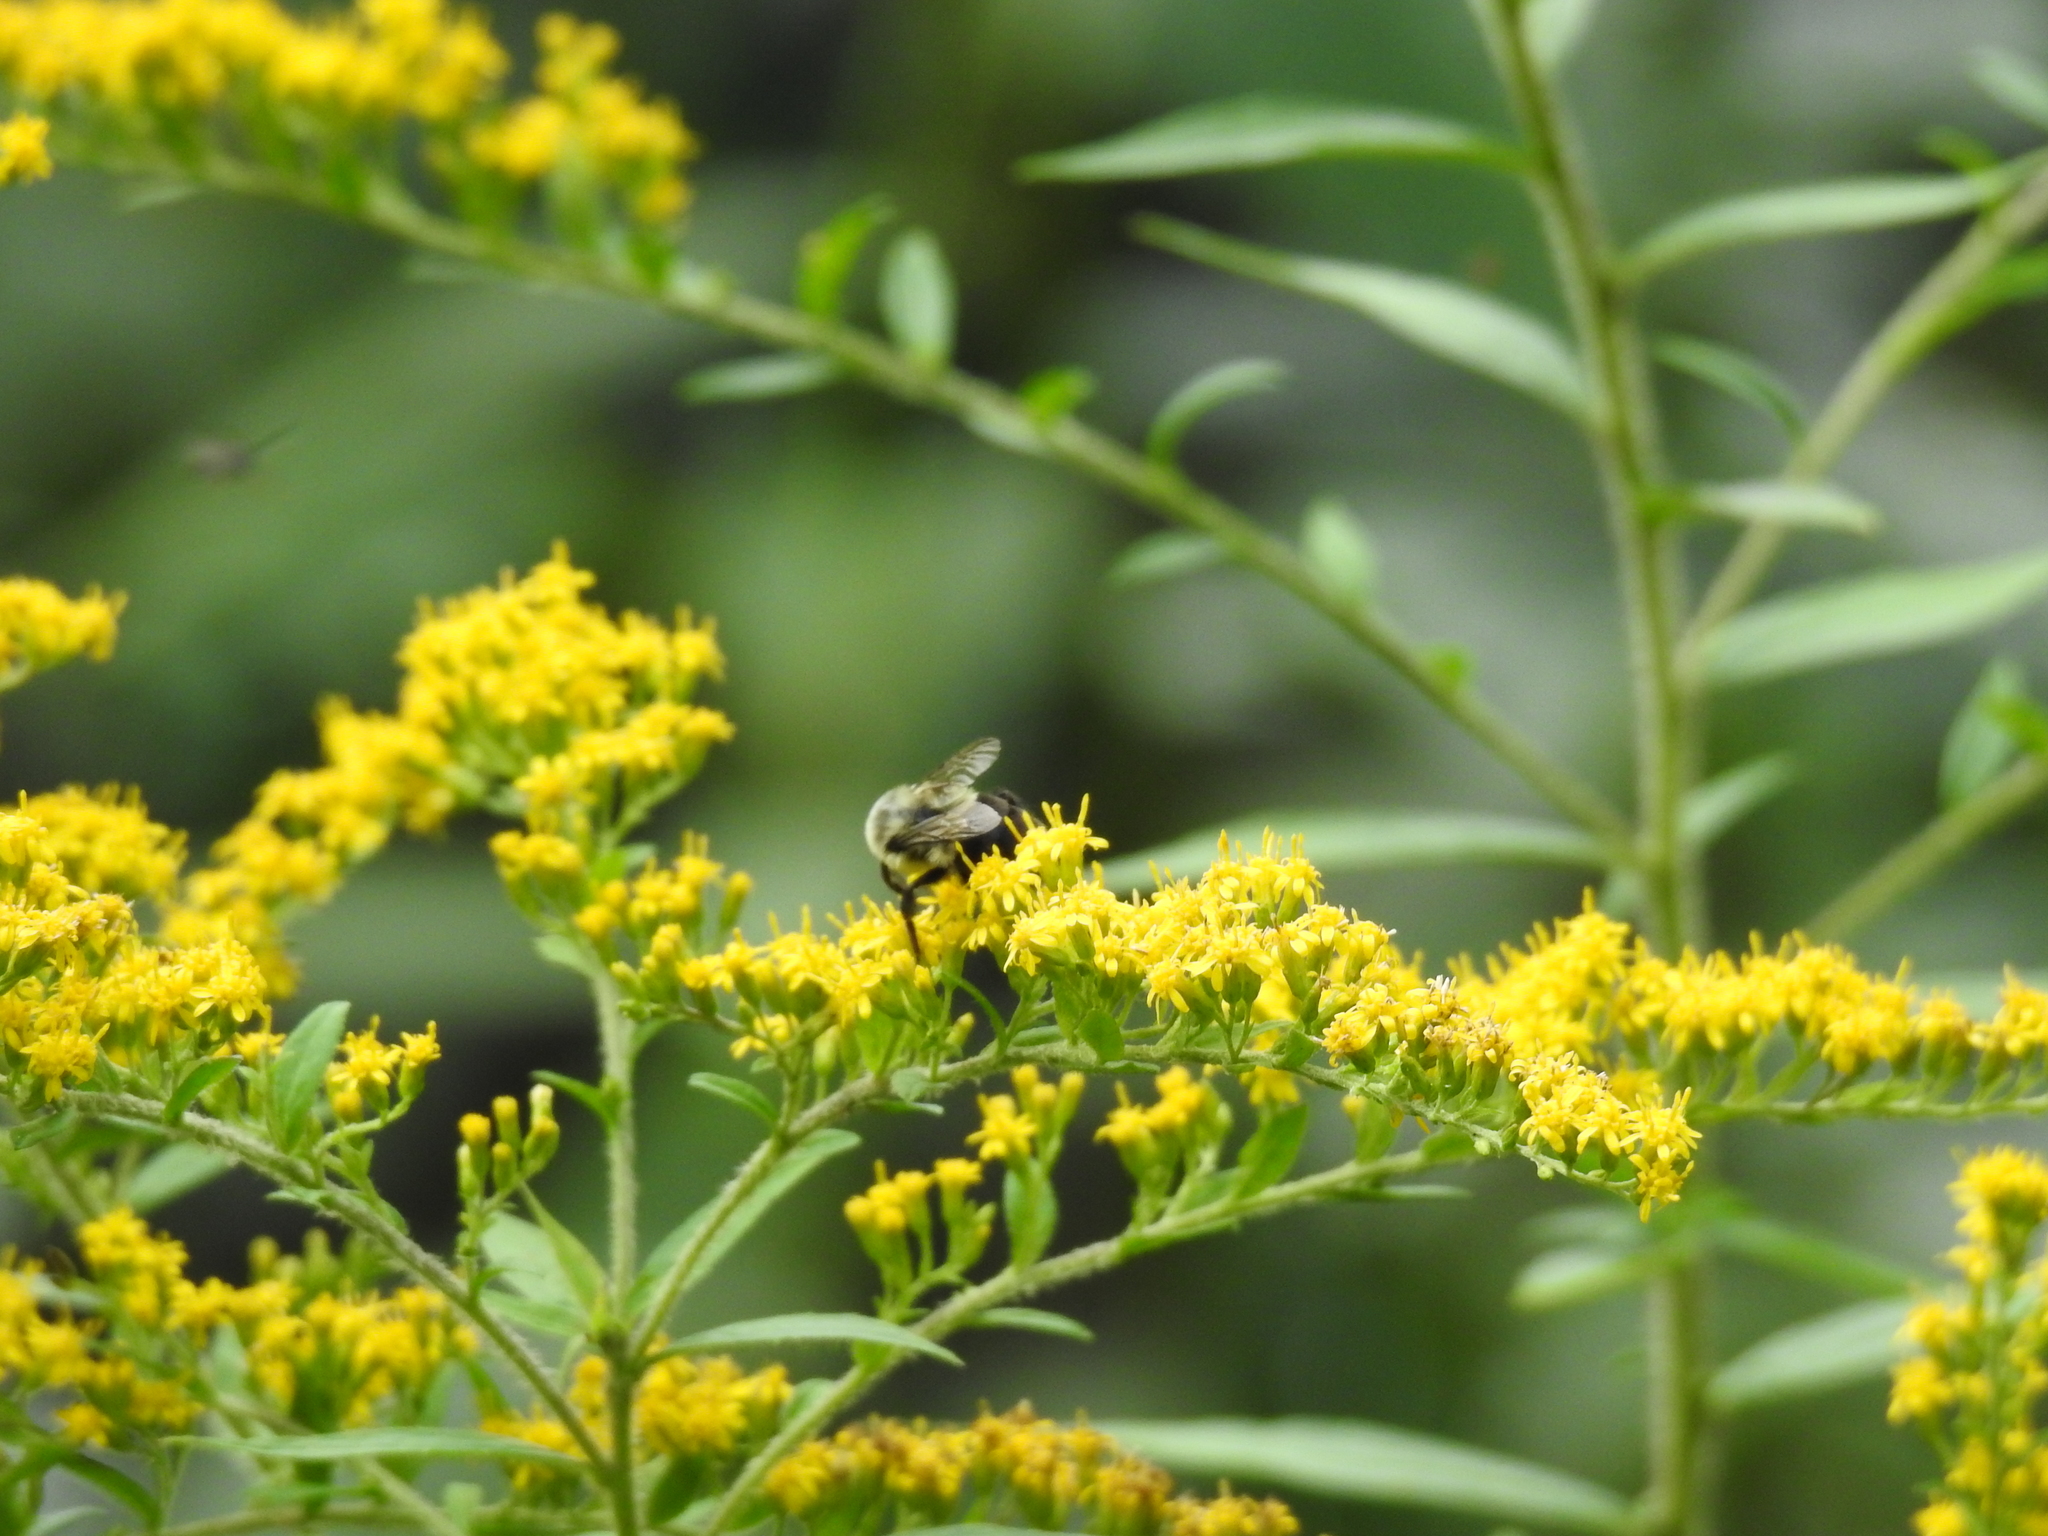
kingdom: Animalia
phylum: Arthropoda
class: Insecta
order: Hymenoptera
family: Apidae
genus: Bombus
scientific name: Bombus impatiens
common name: Common eastern bumble bee
